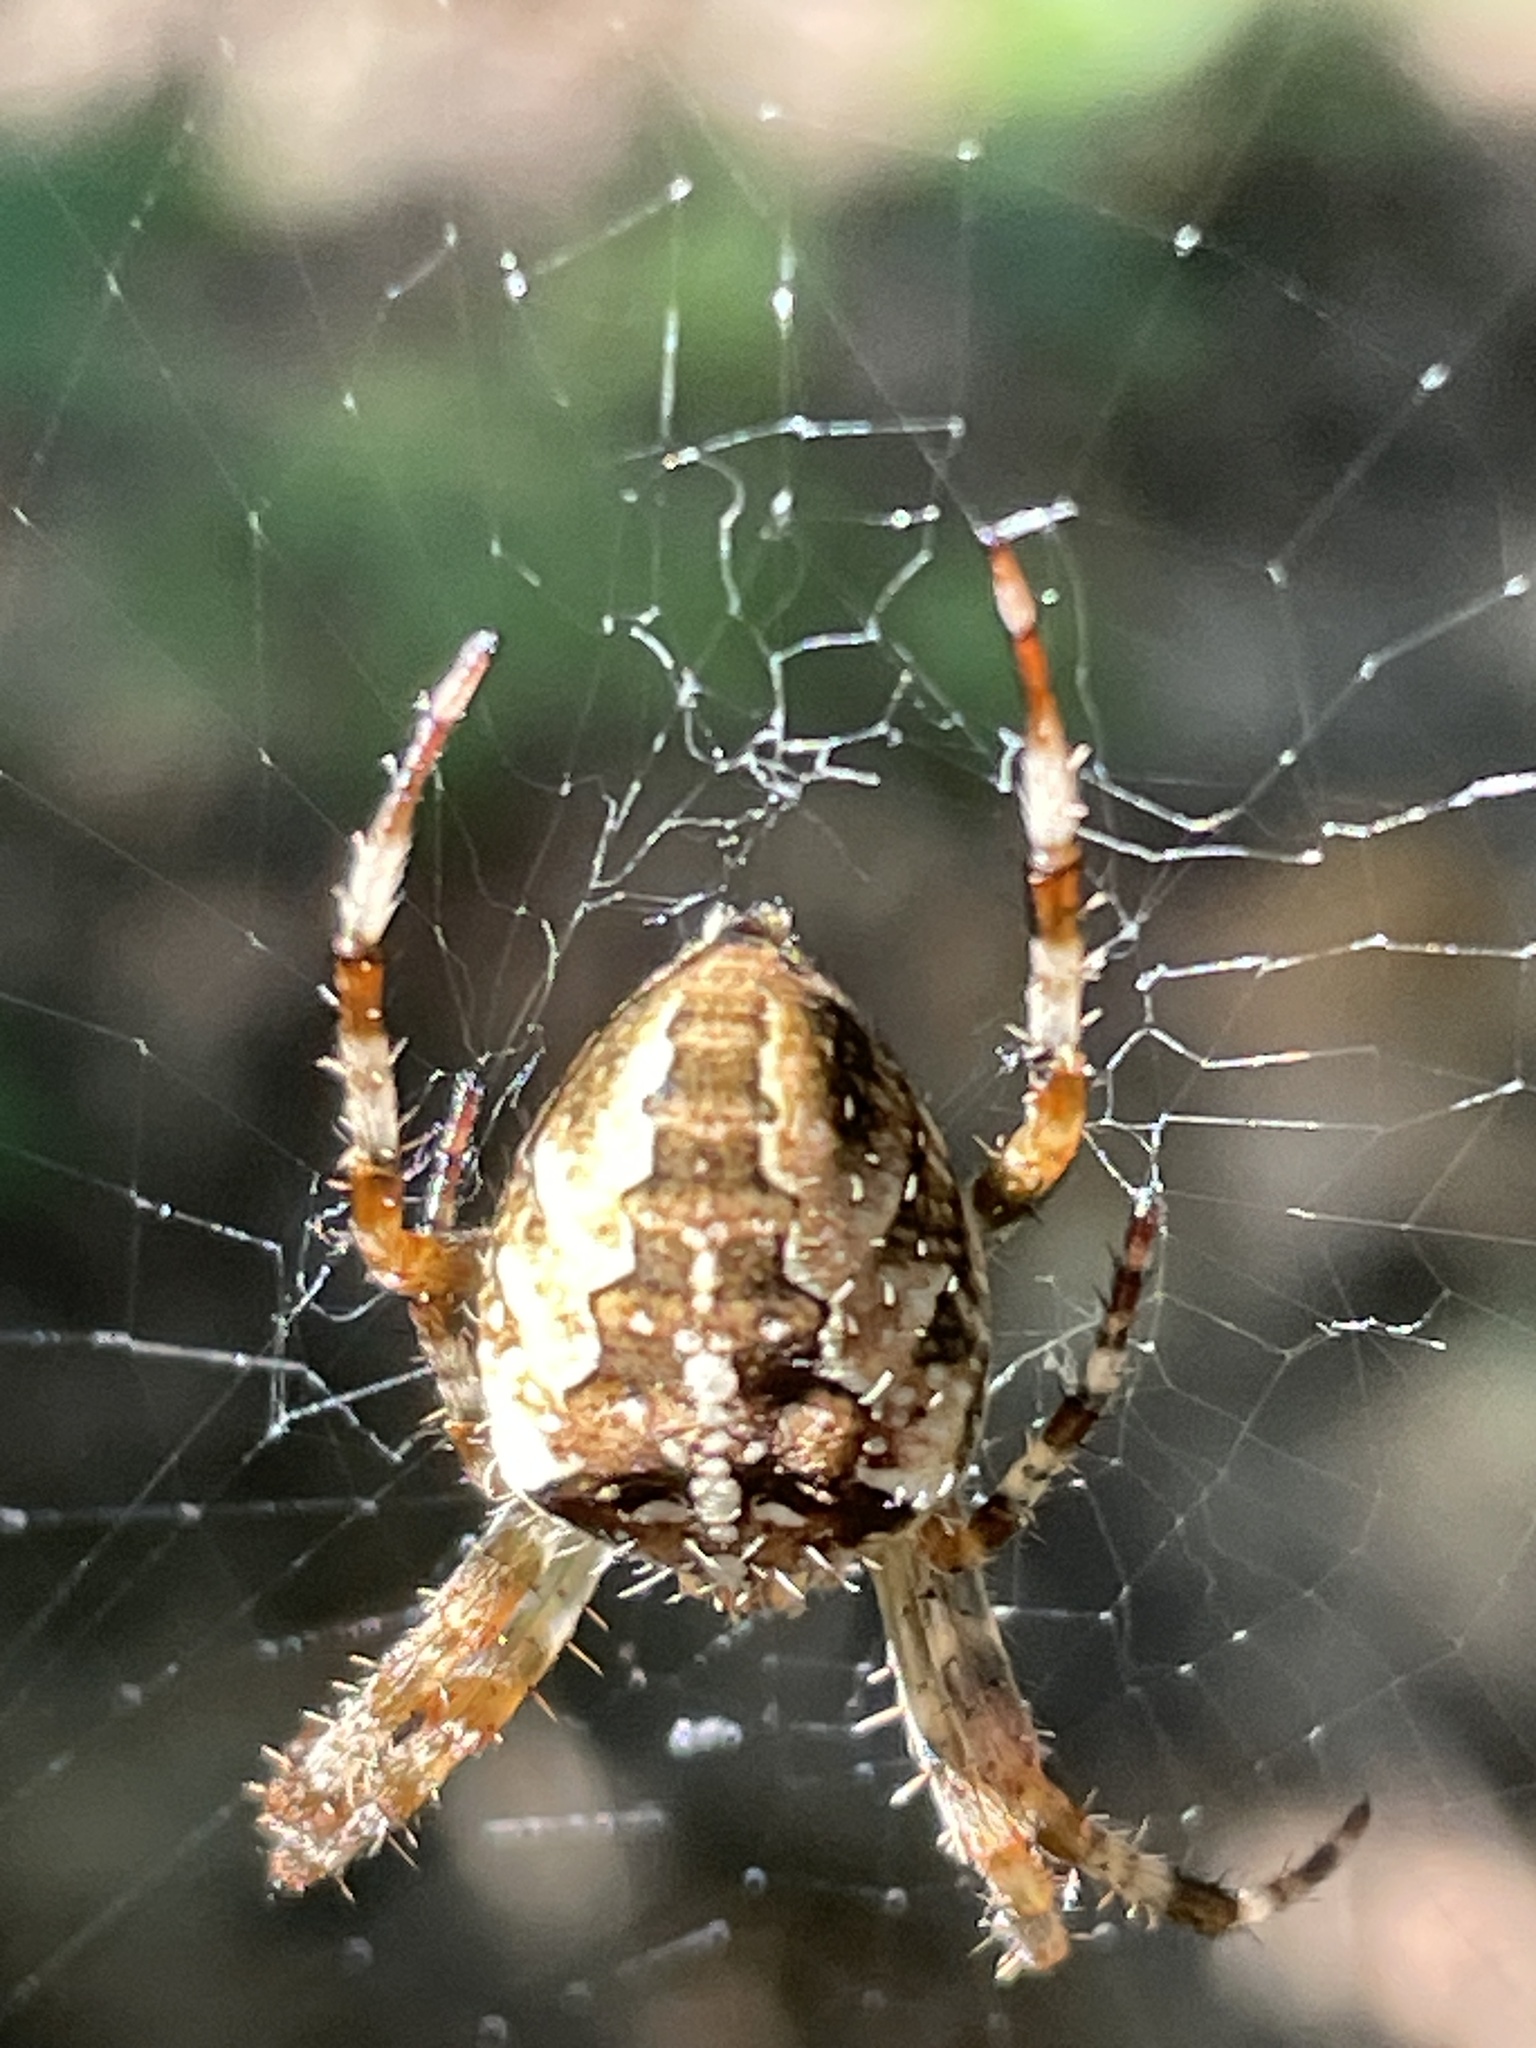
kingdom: Animalia
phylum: Arthropoda
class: Arachnida
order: Araneae
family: Araneidae
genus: Araneus
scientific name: Araneus diadematus
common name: Cross orbweaver
